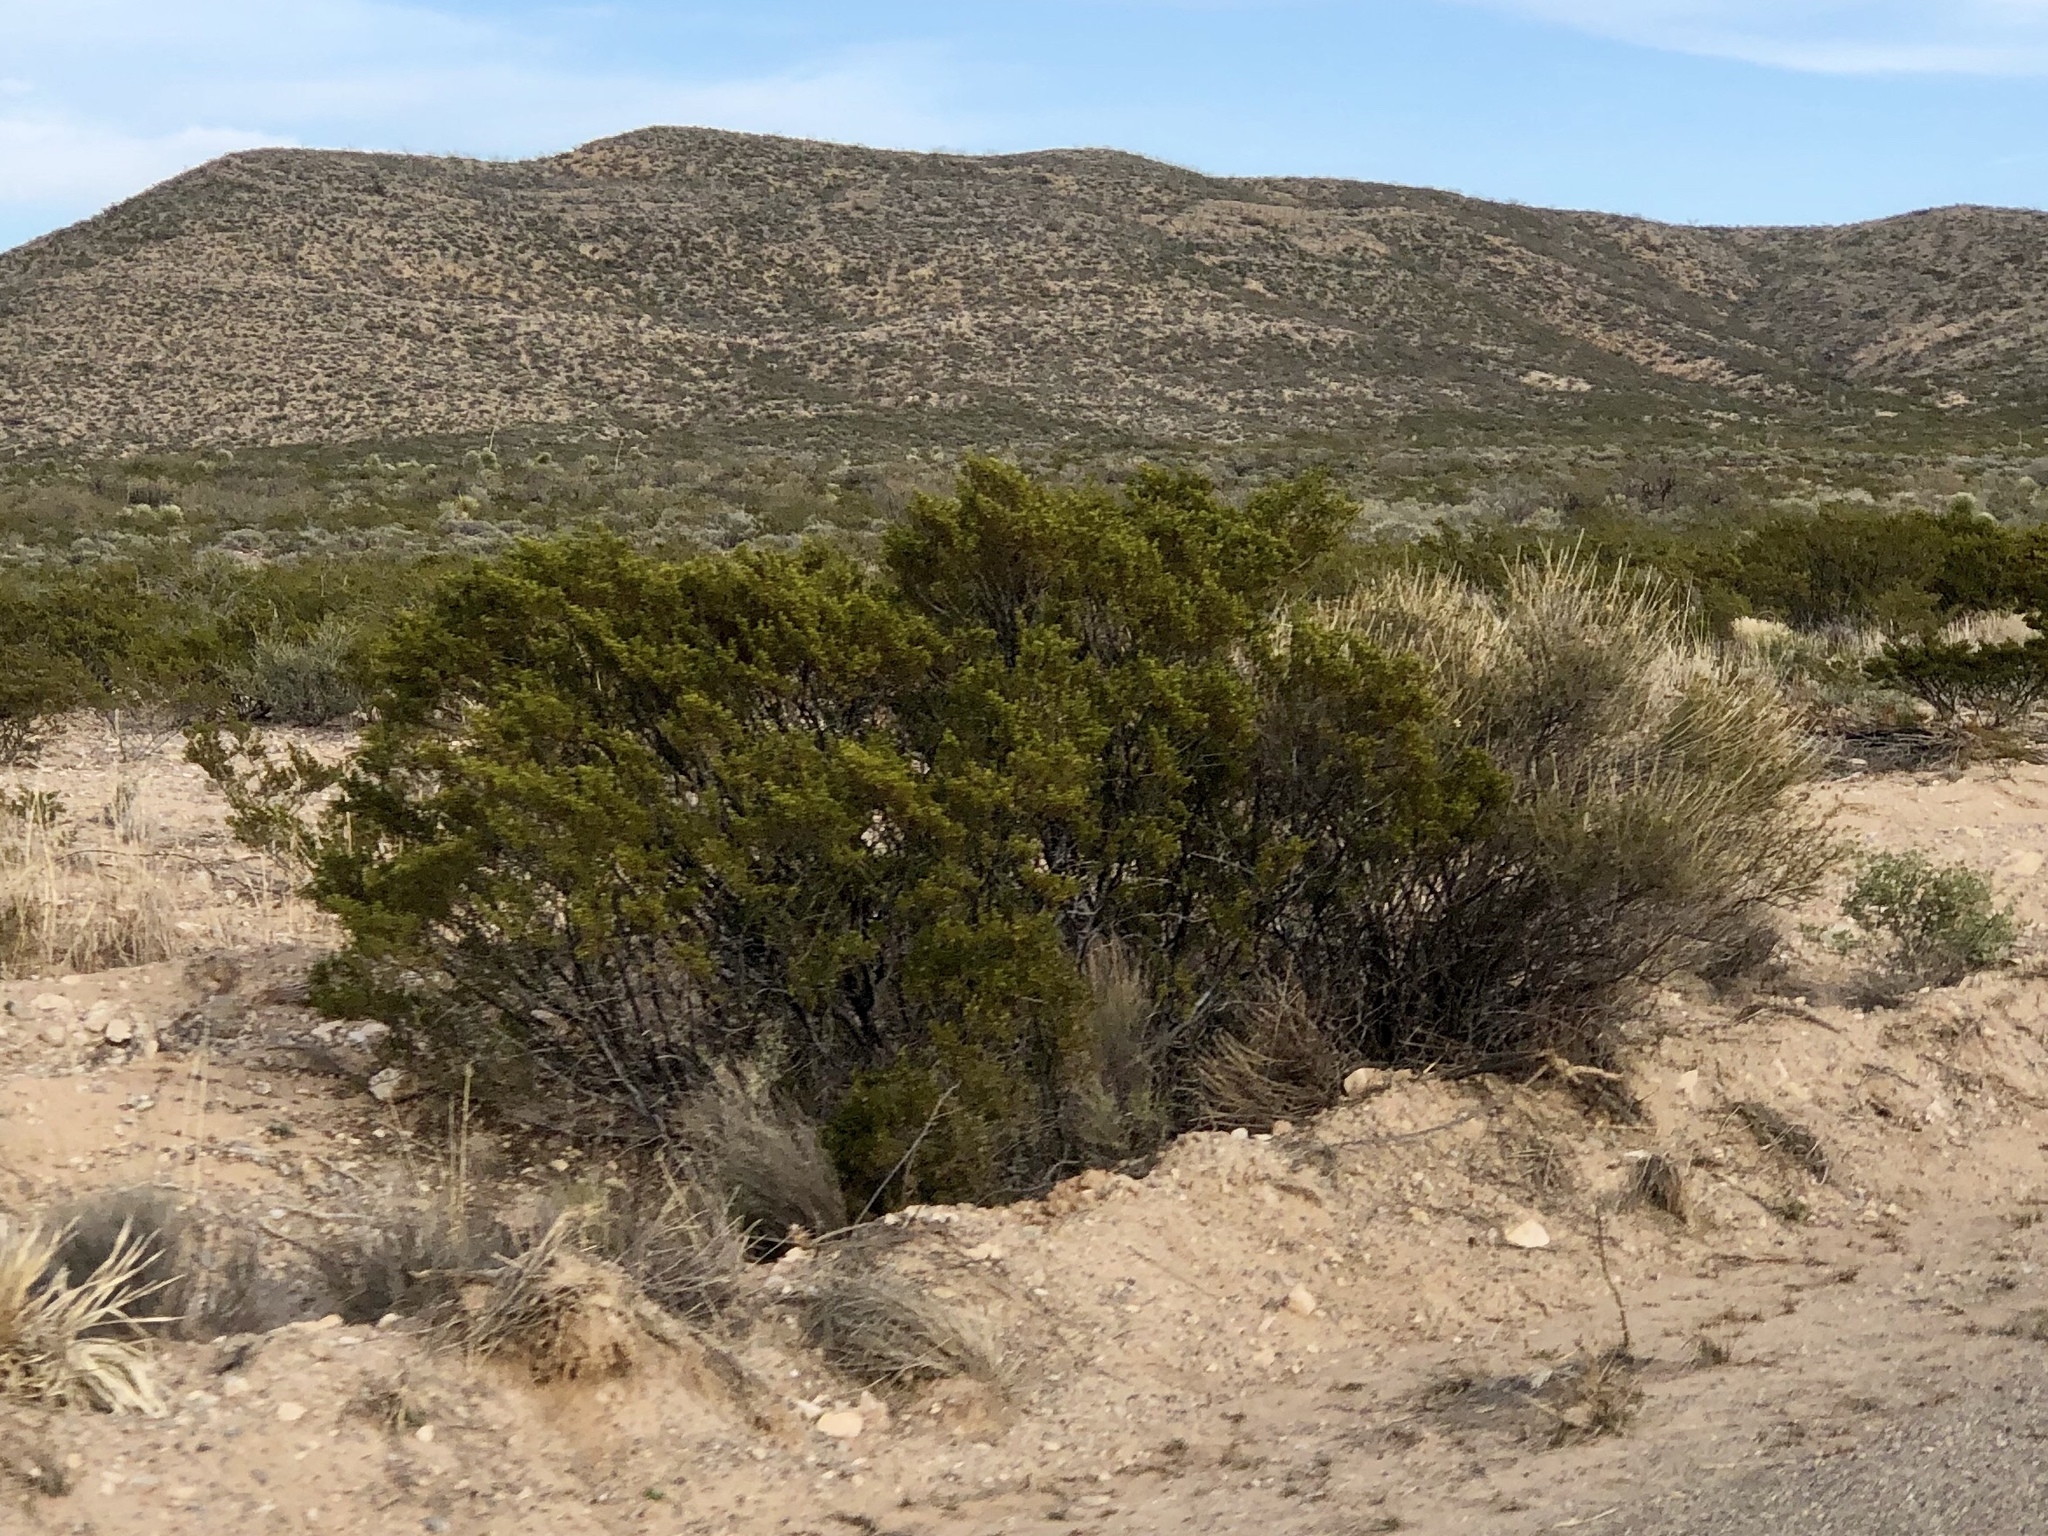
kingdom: Plantae
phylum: Tracheophyta
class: Magnoliopsida
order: Zygophyllales
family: Zygophyllaceae
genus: Larrea
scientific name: Larrea tridentata
